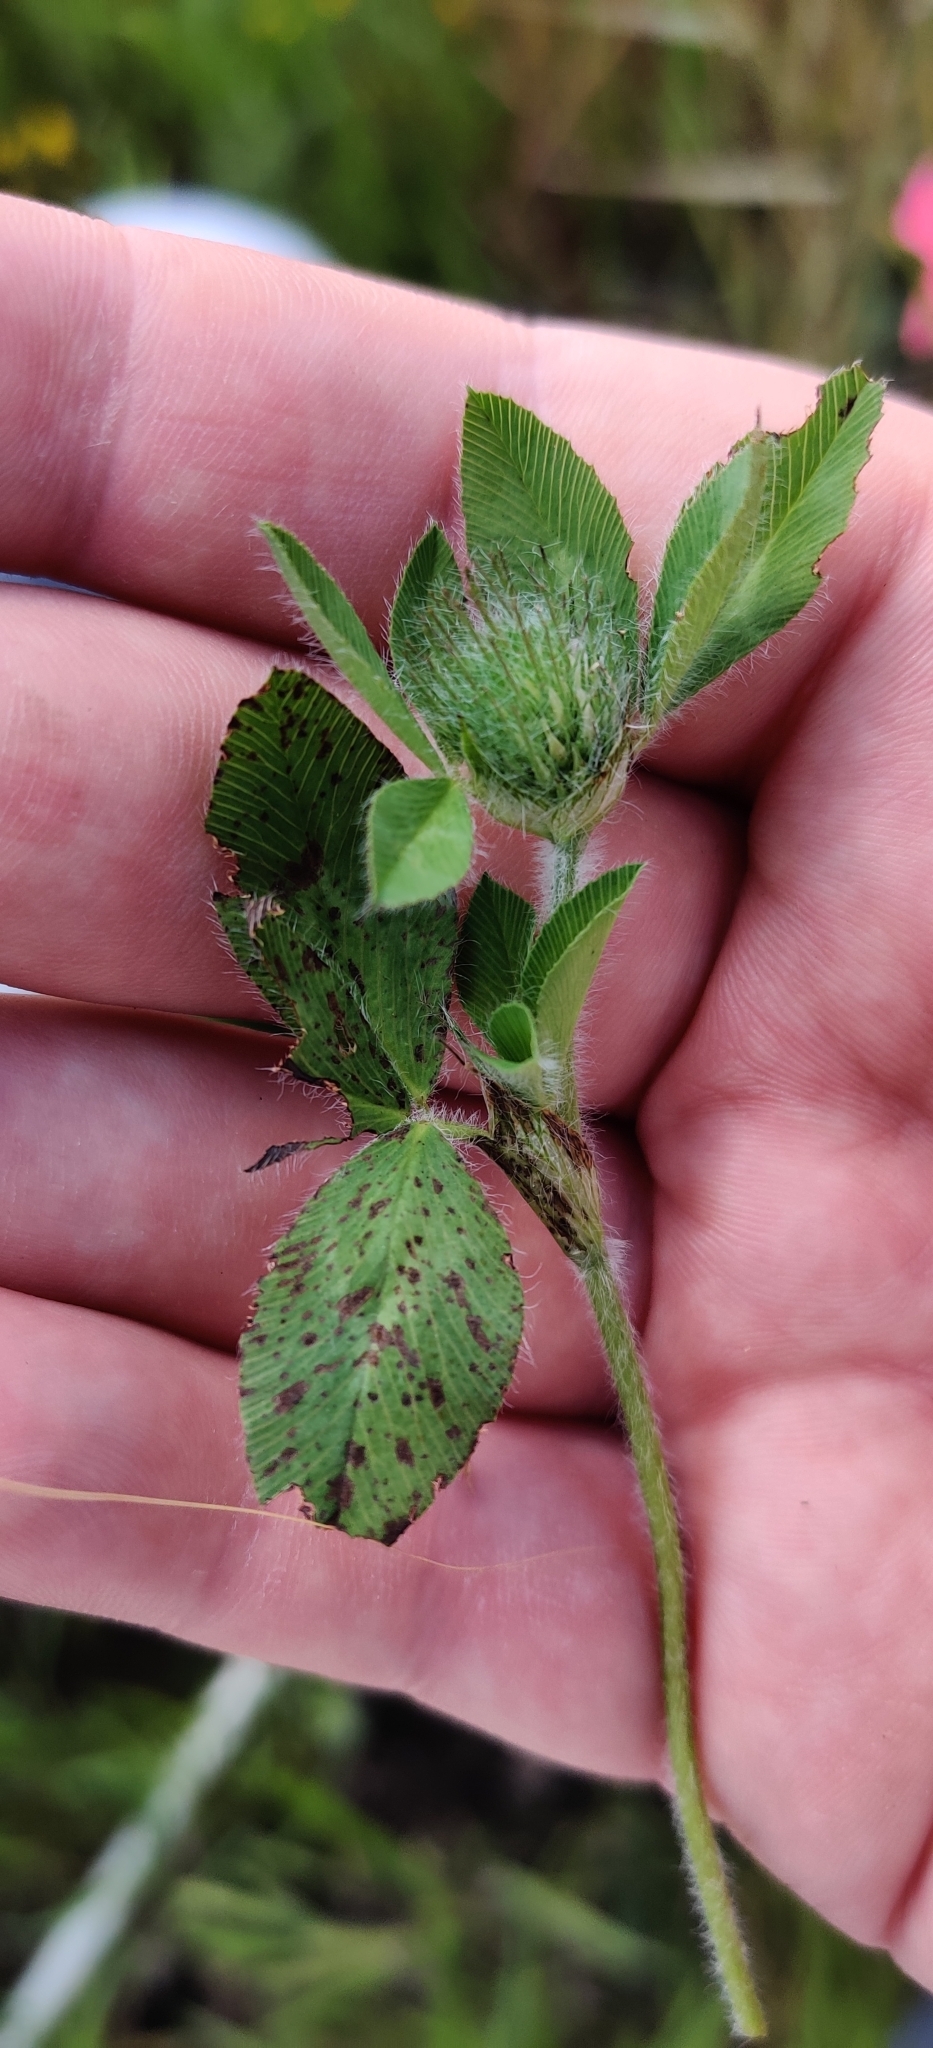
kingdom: Plantae
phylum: Tracheophyta
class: Magnoliopsida
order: Fabales
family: Fabaceae
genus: Trifolium
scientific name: Trifolium pratense
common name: Red clover
